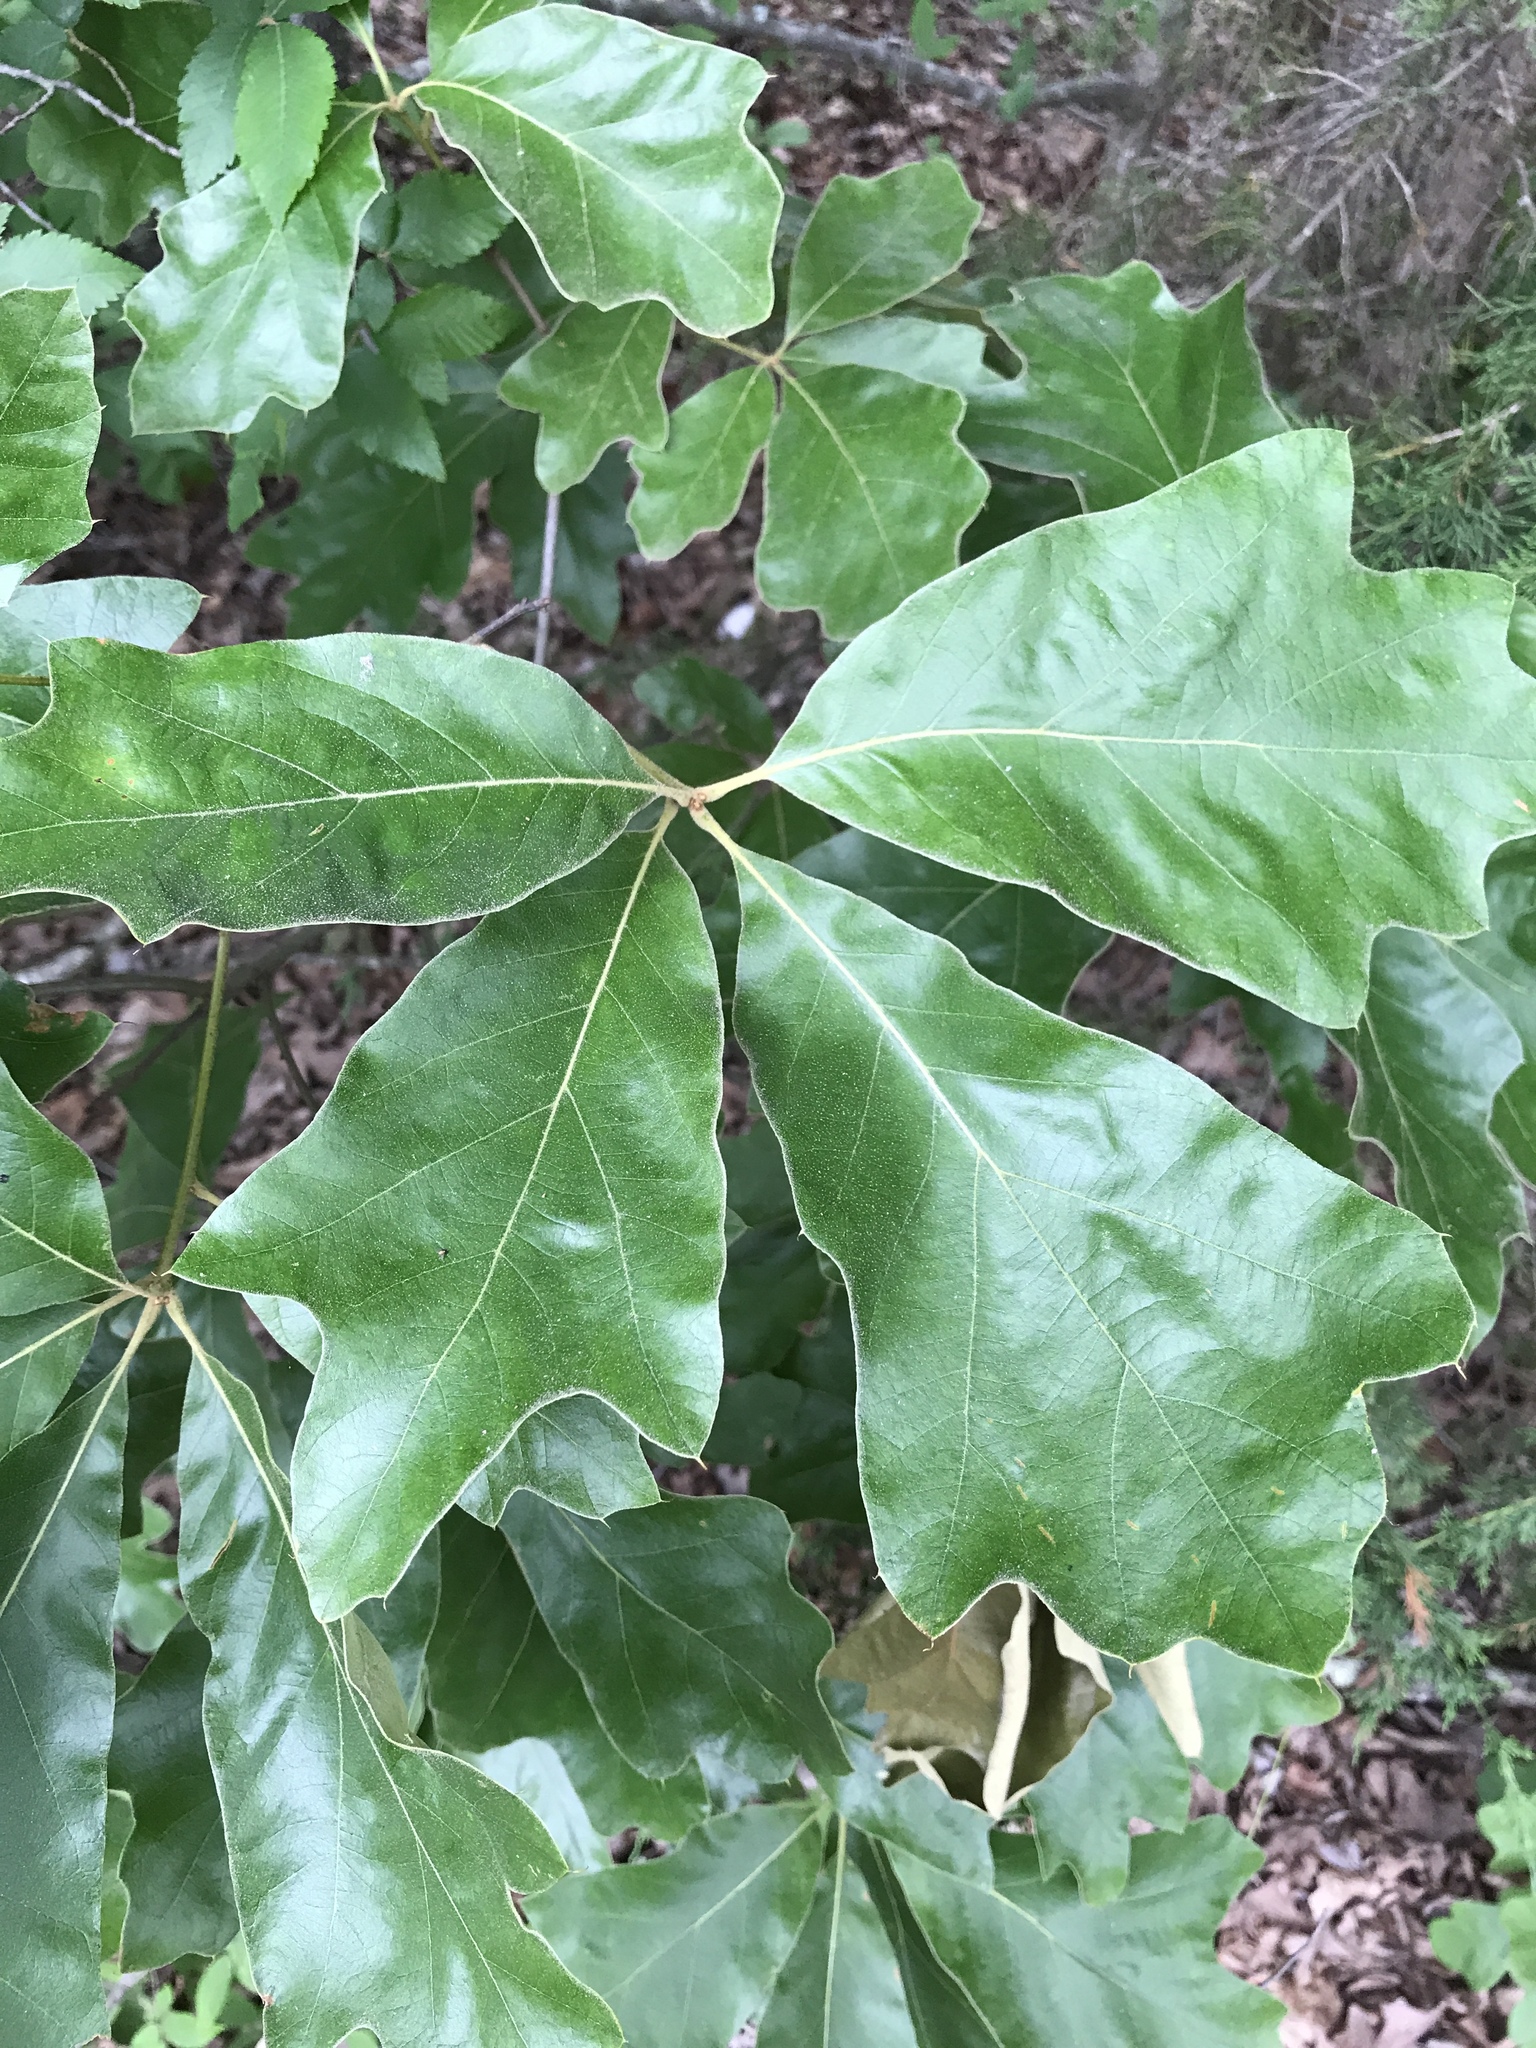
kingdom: Plantae
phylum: Tracheophyta
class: Magnoliopsida
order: Fagales
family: Fagaceae
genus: Quercus
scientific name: Quercus falcata
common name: Southern red oak
